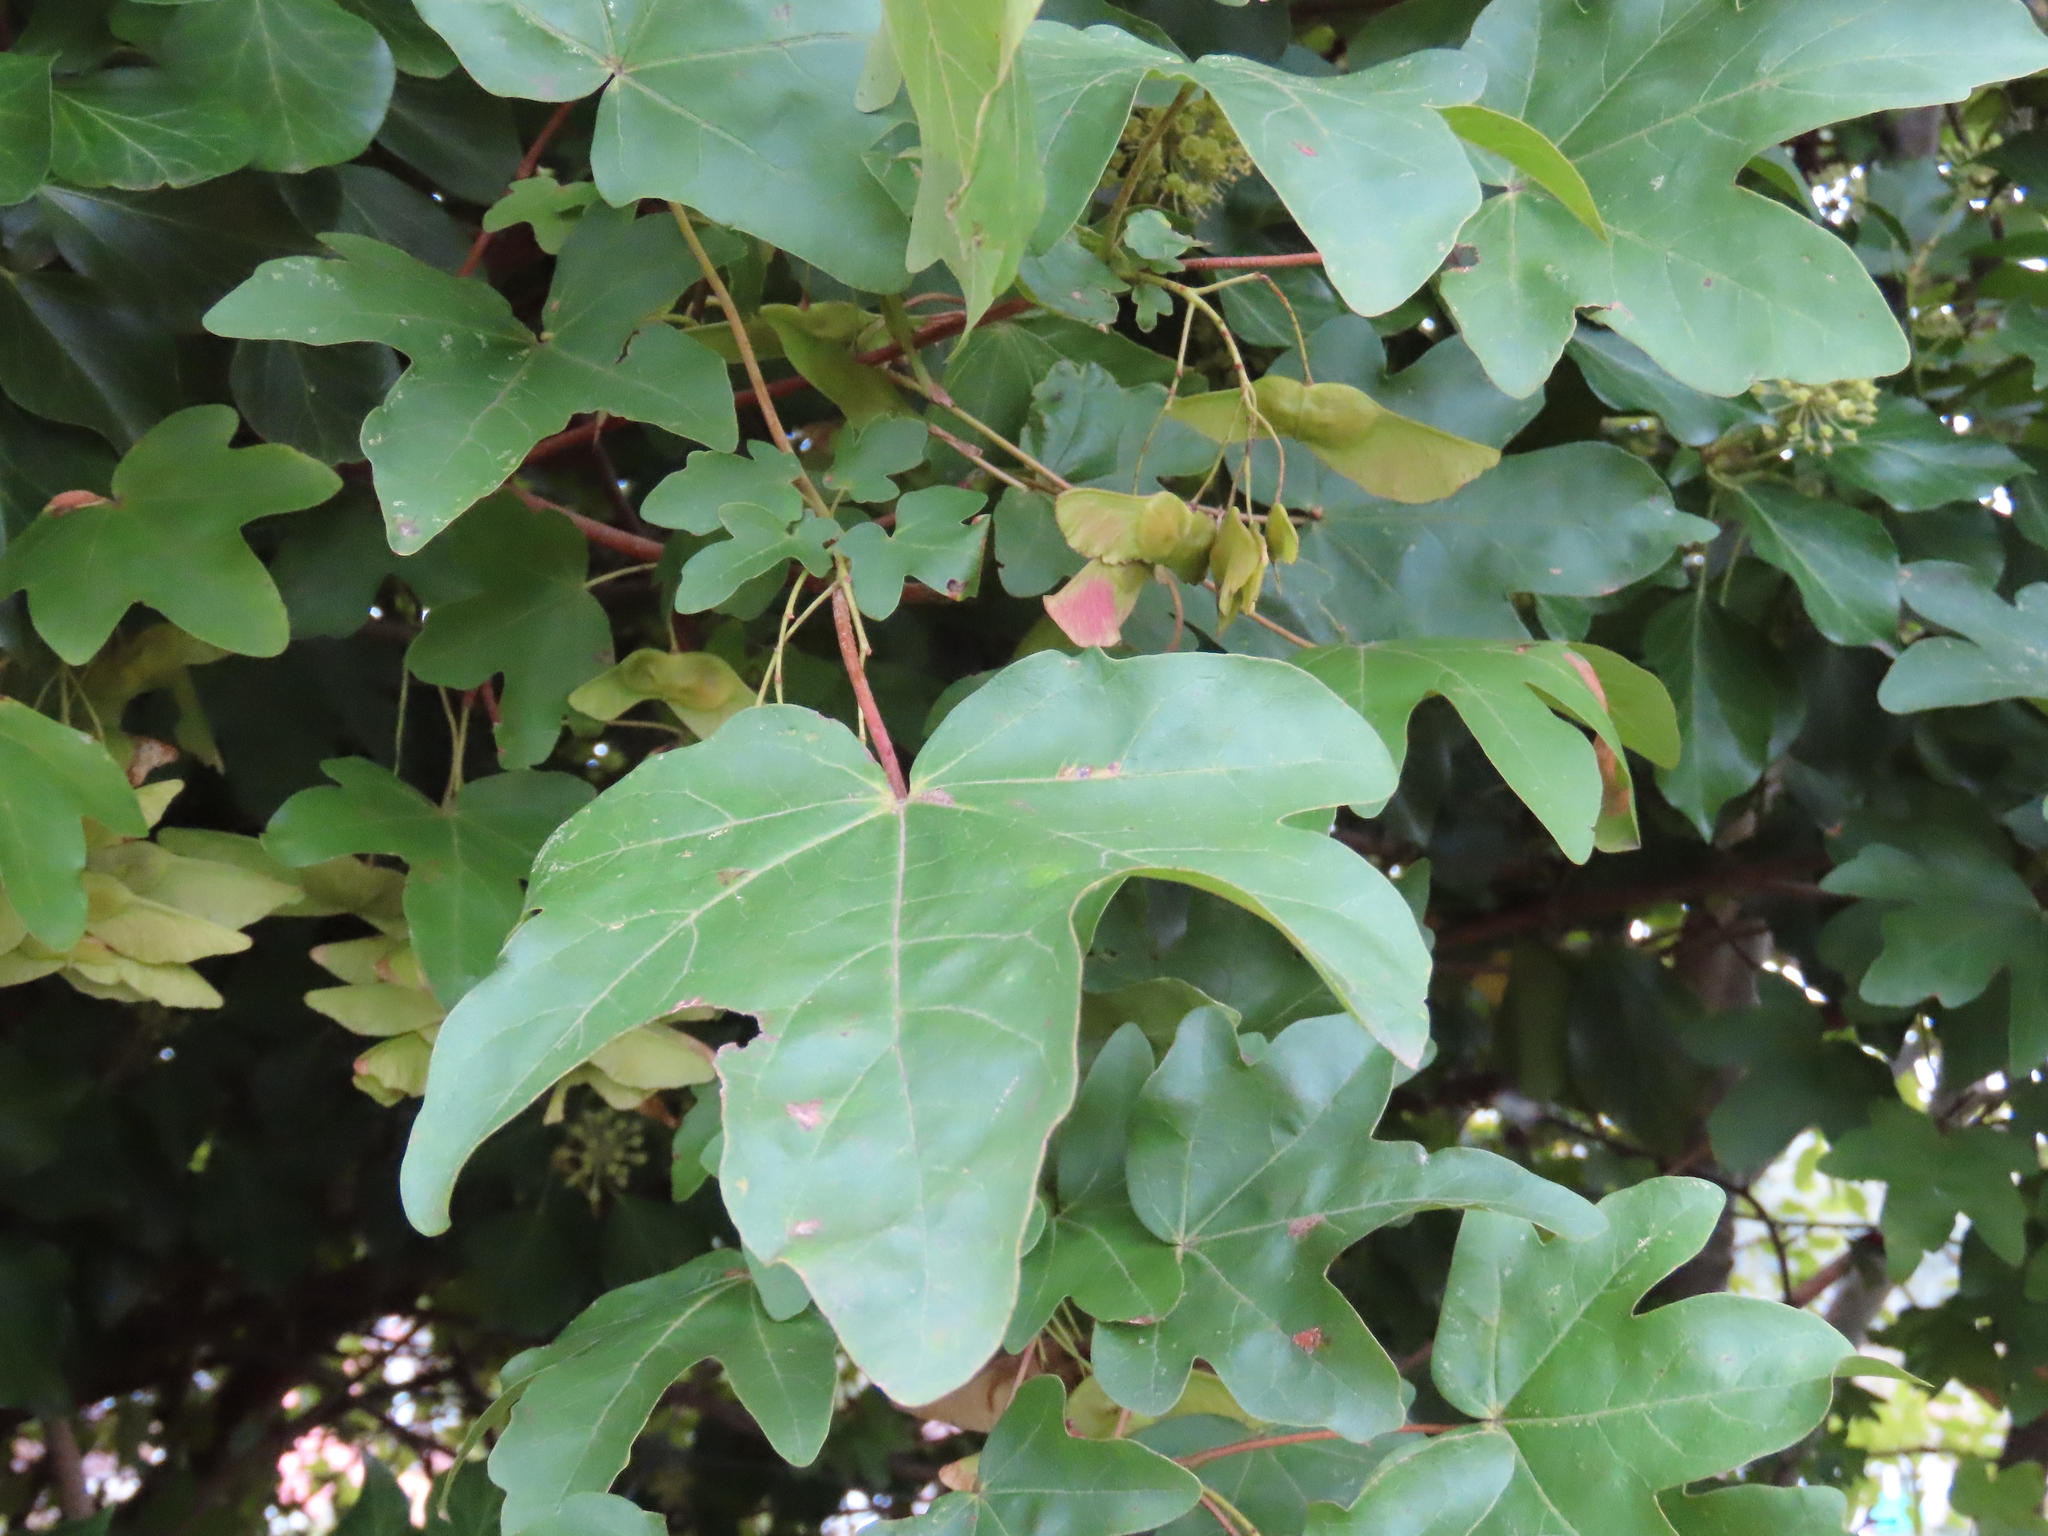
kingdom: Plantae
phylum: Tracheophyta
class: Magnoliopsida
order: Sapindales
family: Sapindaceae
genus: Acer
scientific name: Acer campestre
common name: Field maple
